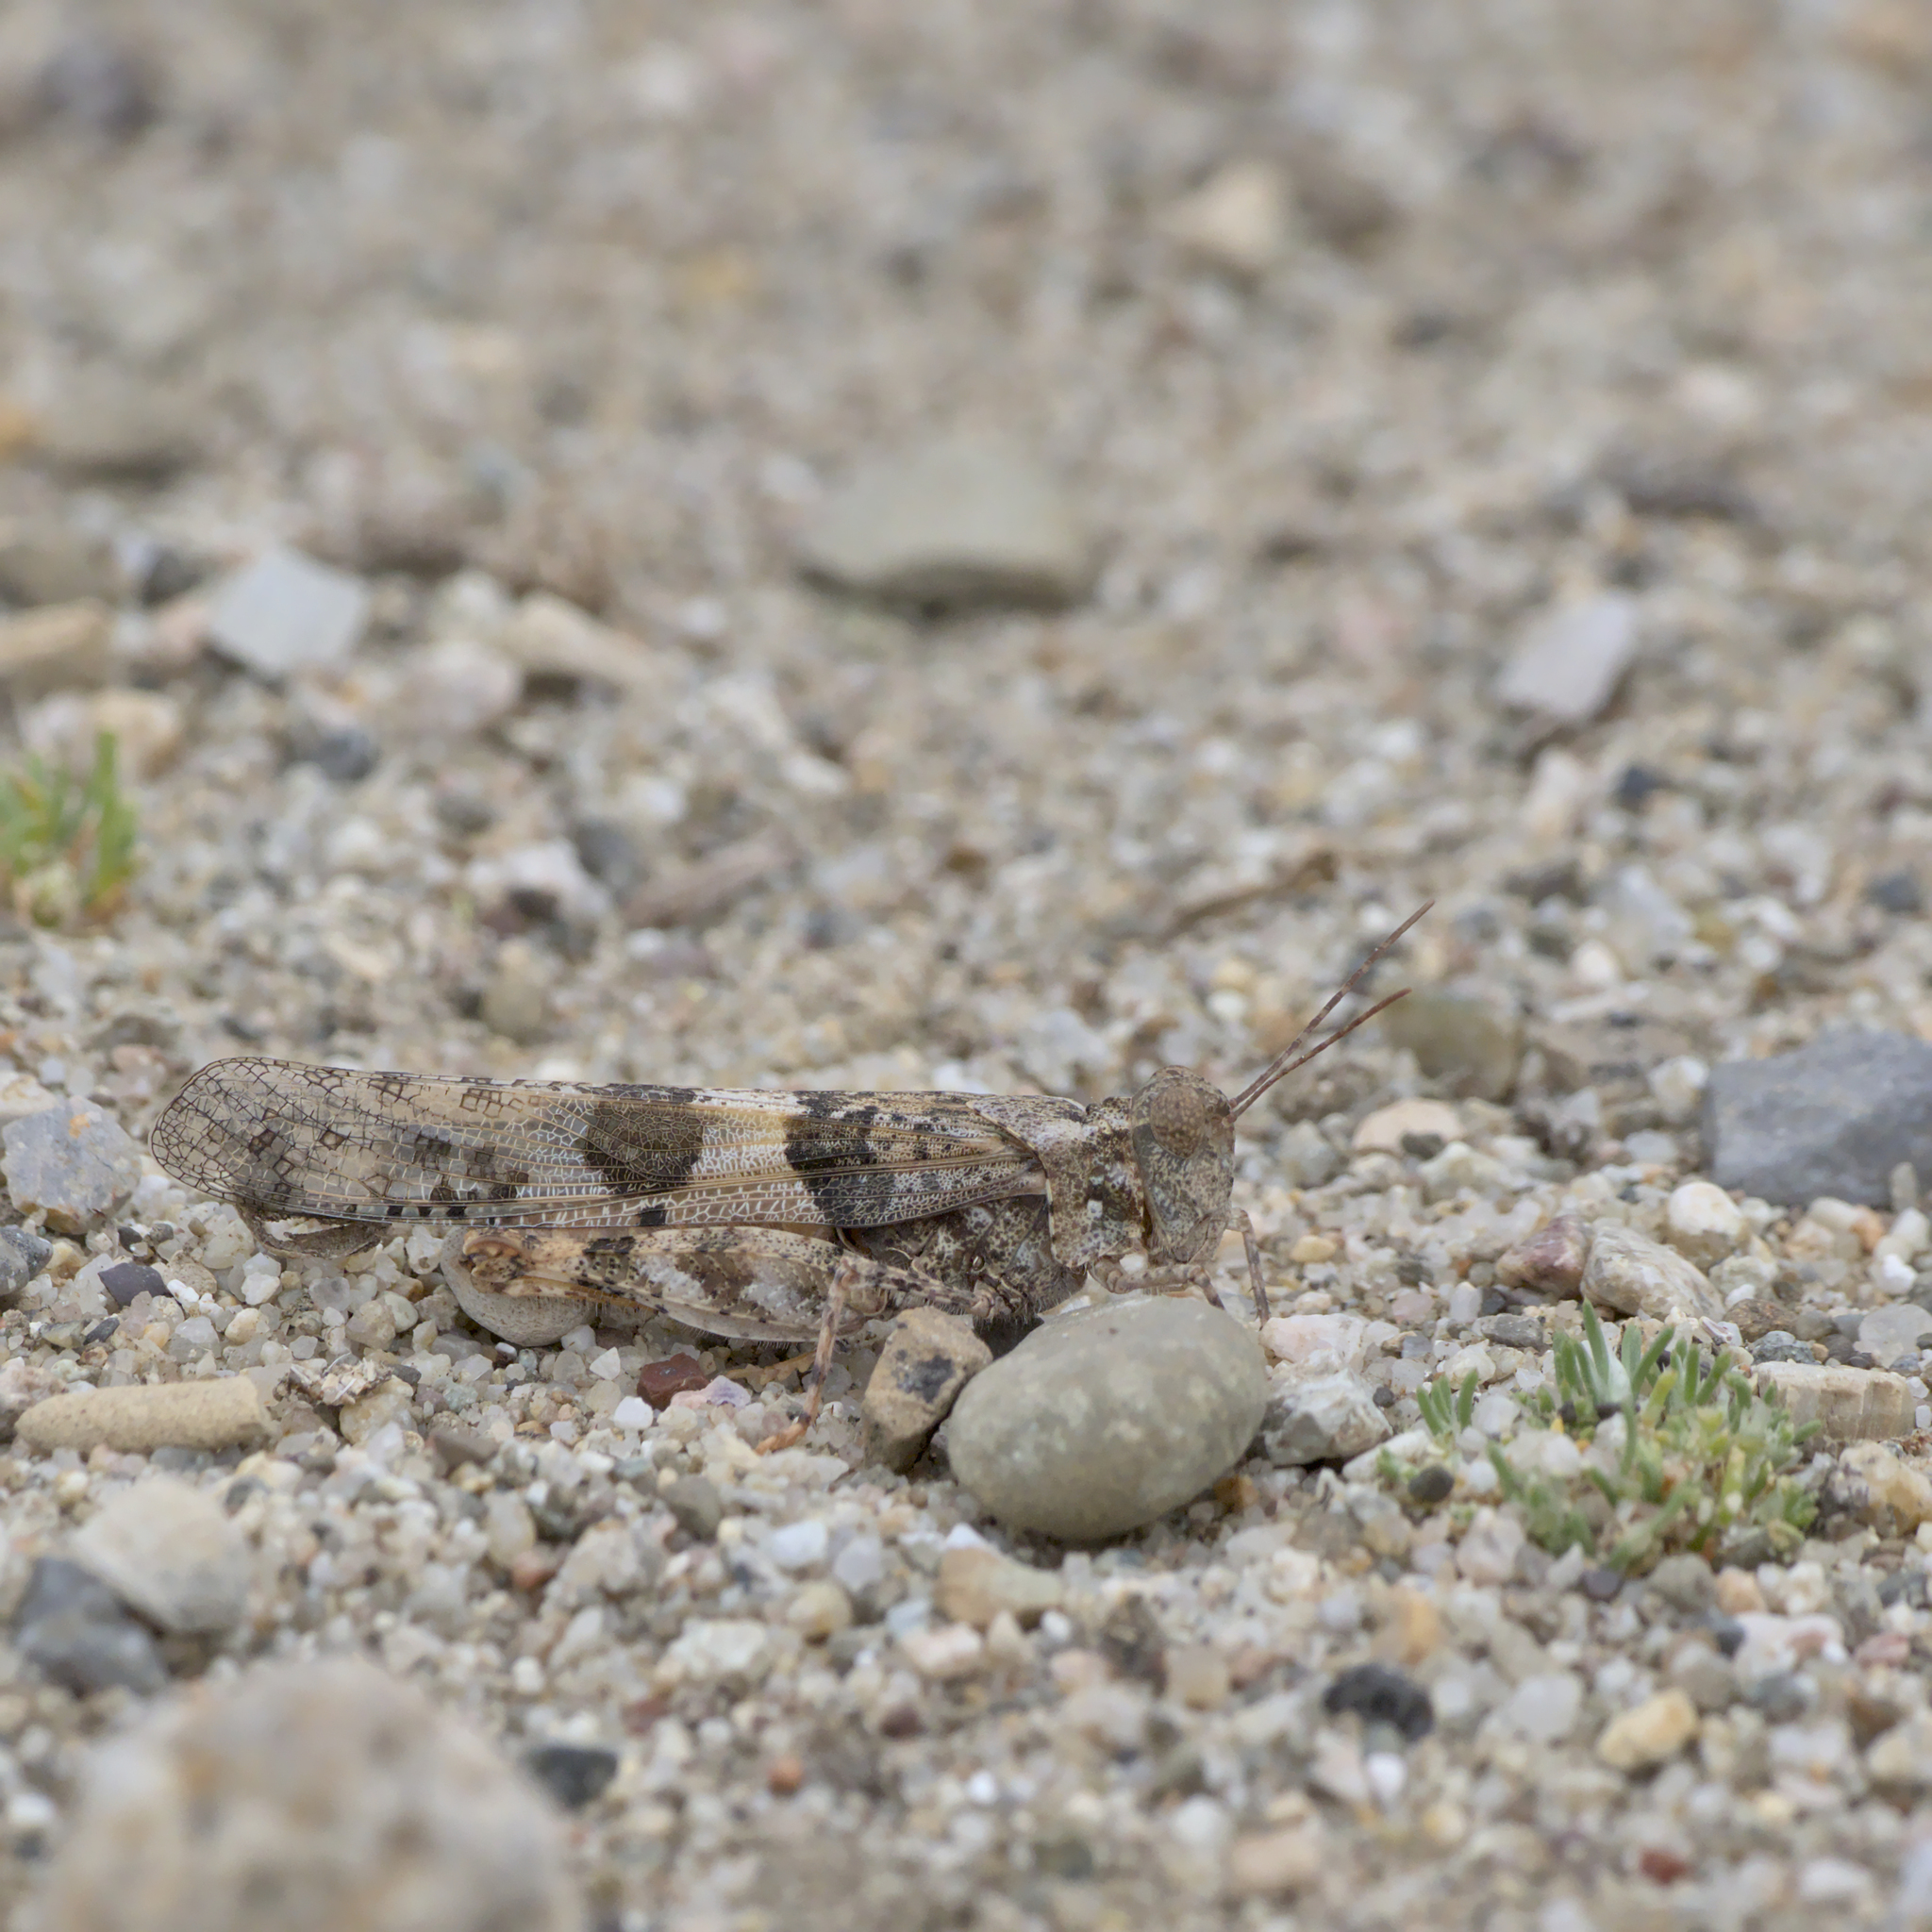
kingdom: Animalia
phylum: Arthropoda
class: Insecta
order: Orthoptera
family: Acrididae
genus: Trimerotropis
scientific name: Trimerotropis pallidipennis
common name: Pallid-winged grasshopper
